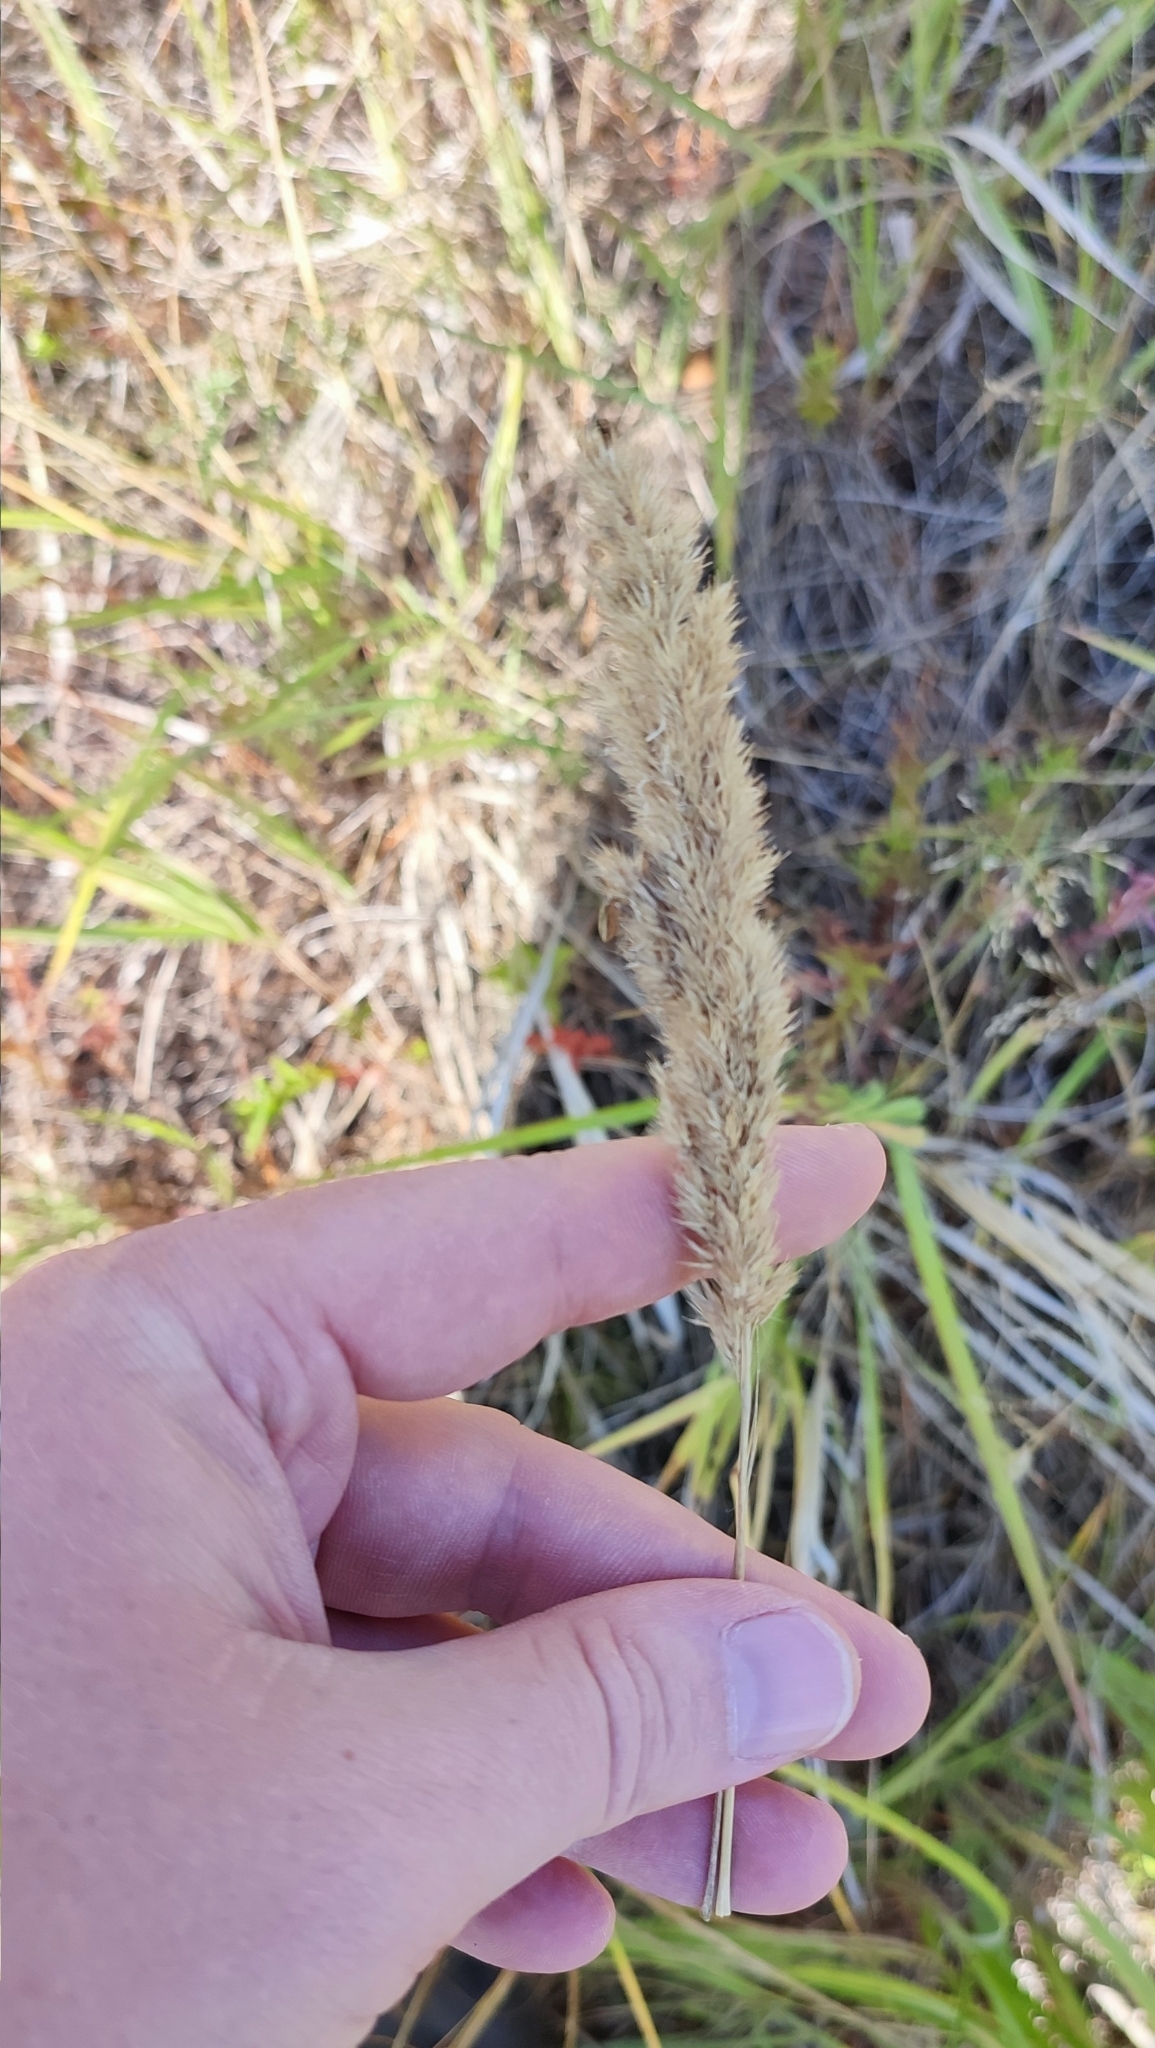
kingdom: Plantae
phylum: Tracheophyta
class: Liliopsida
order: Poales
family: Poaceae
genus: Calamagrostis
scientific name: Calamagrostis epigejos
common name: Wood small-reed
